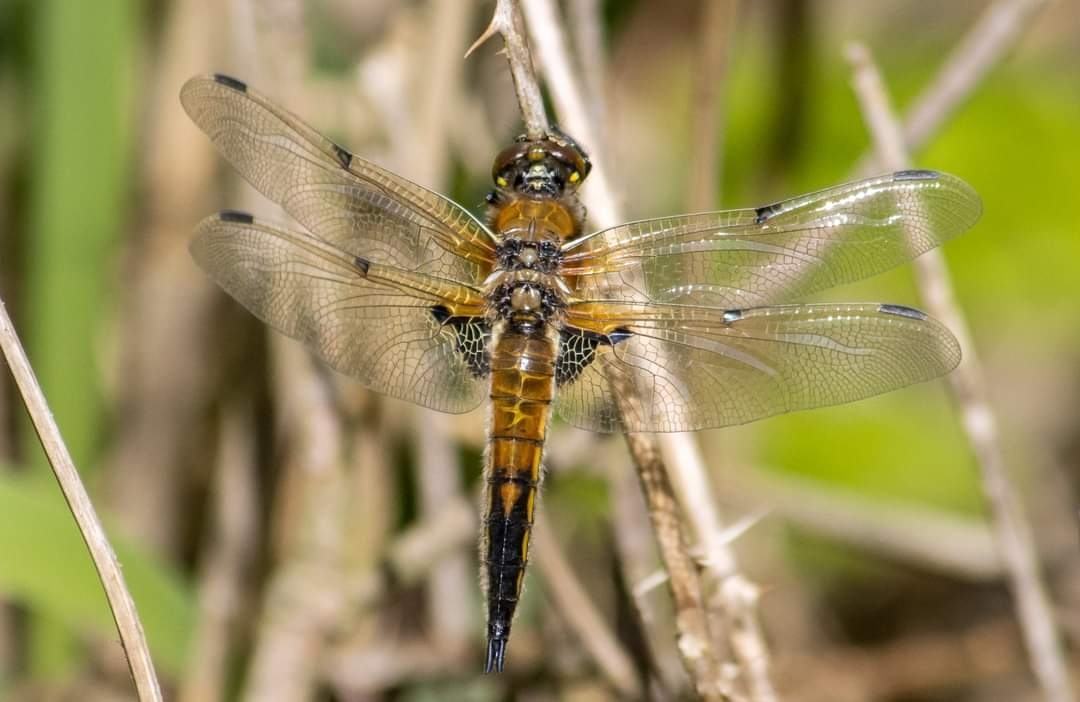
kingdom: Animalia
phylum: Arthropoda
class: Insecta
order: Odonata
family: Libellulidae
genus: Libellula
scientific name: Libellula quadrimaculata
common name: Four-spotted chaser
